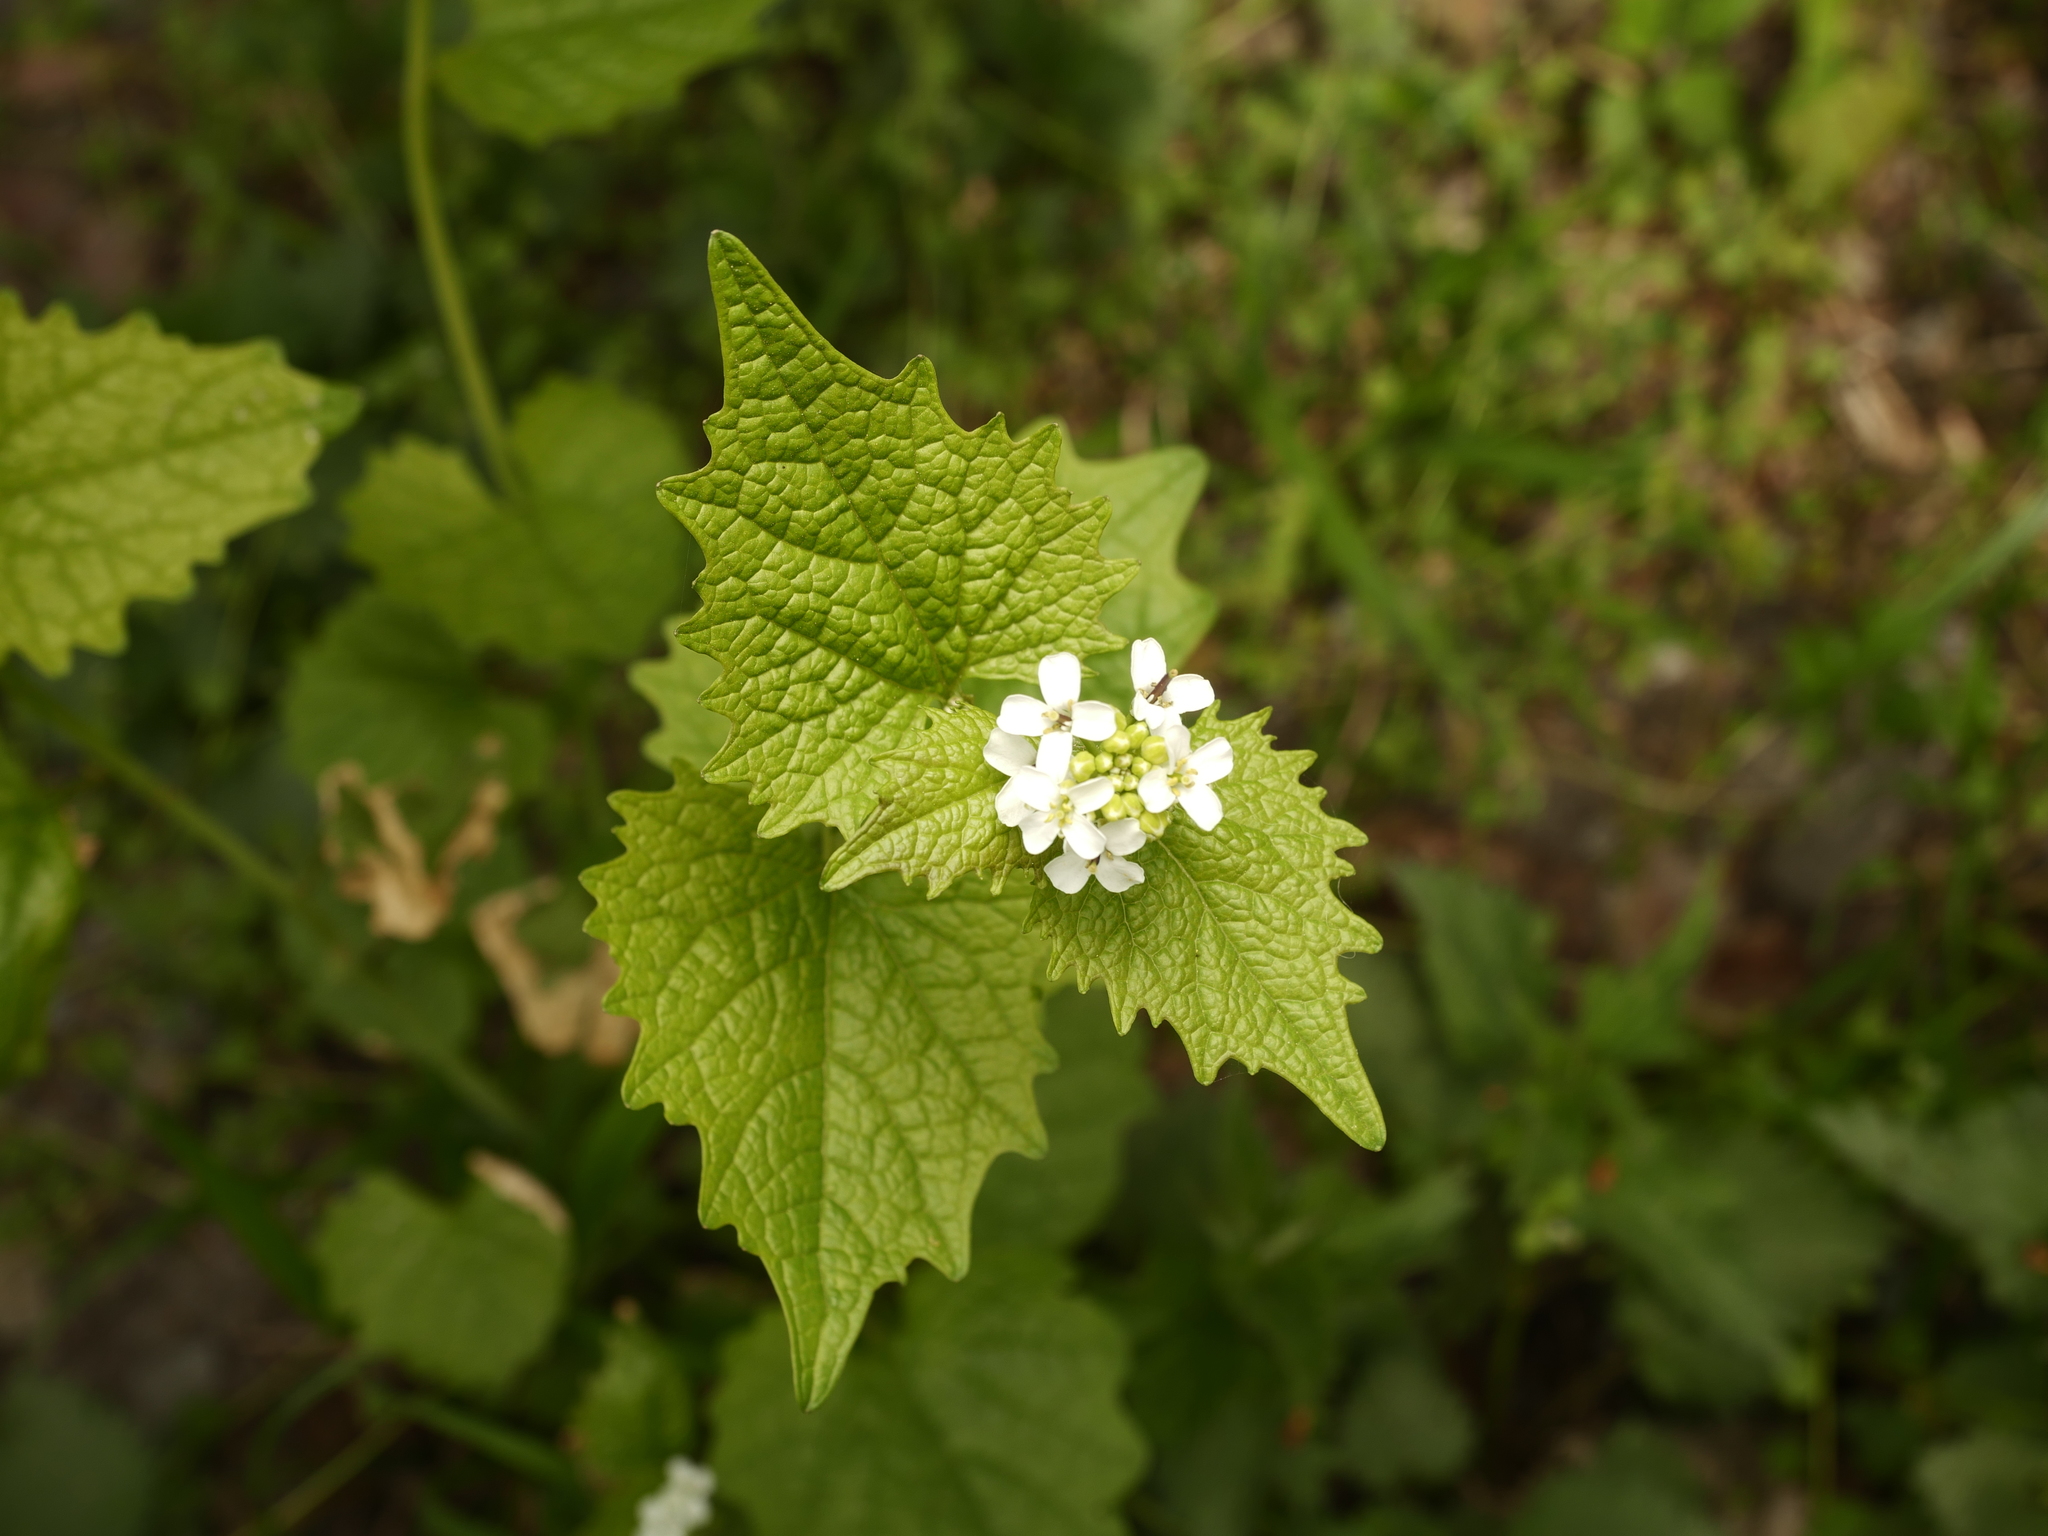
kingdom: Plantae
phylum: Tracheophyta
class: Magnoliopsida
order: Brassicales
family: Brassicaceae
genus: Alliaria
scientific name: Alliaria petiolata
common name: Garlic mustard
